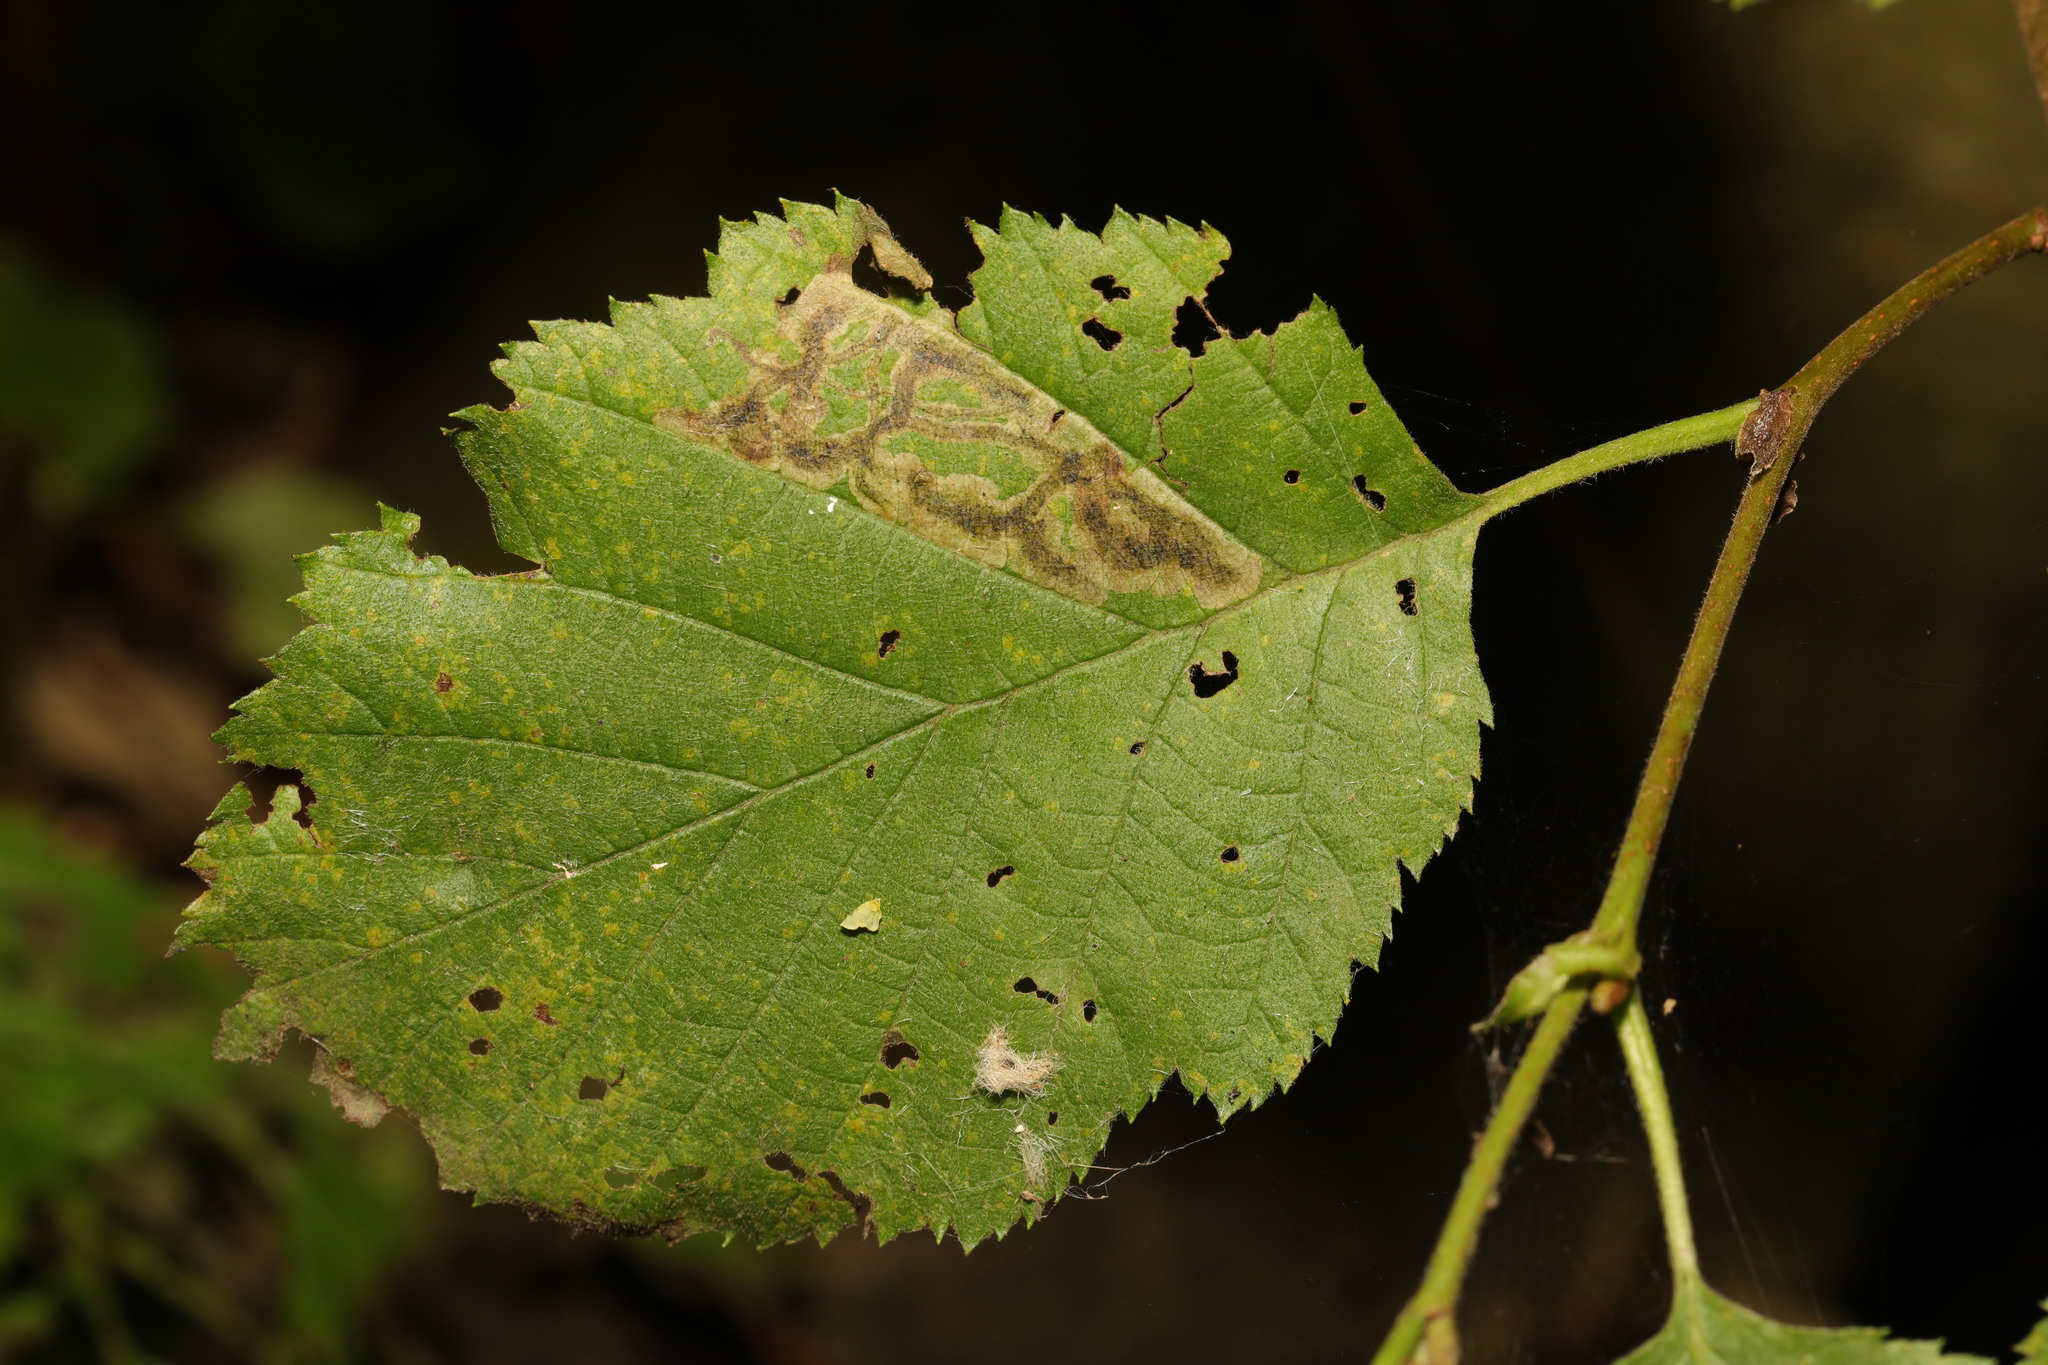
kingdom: Plantae
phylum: Tracheophyta
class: Magnoliopsida
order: Fagales
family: Betulaceae
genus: Alnus
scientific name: Alnus incana
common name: Grey alder
